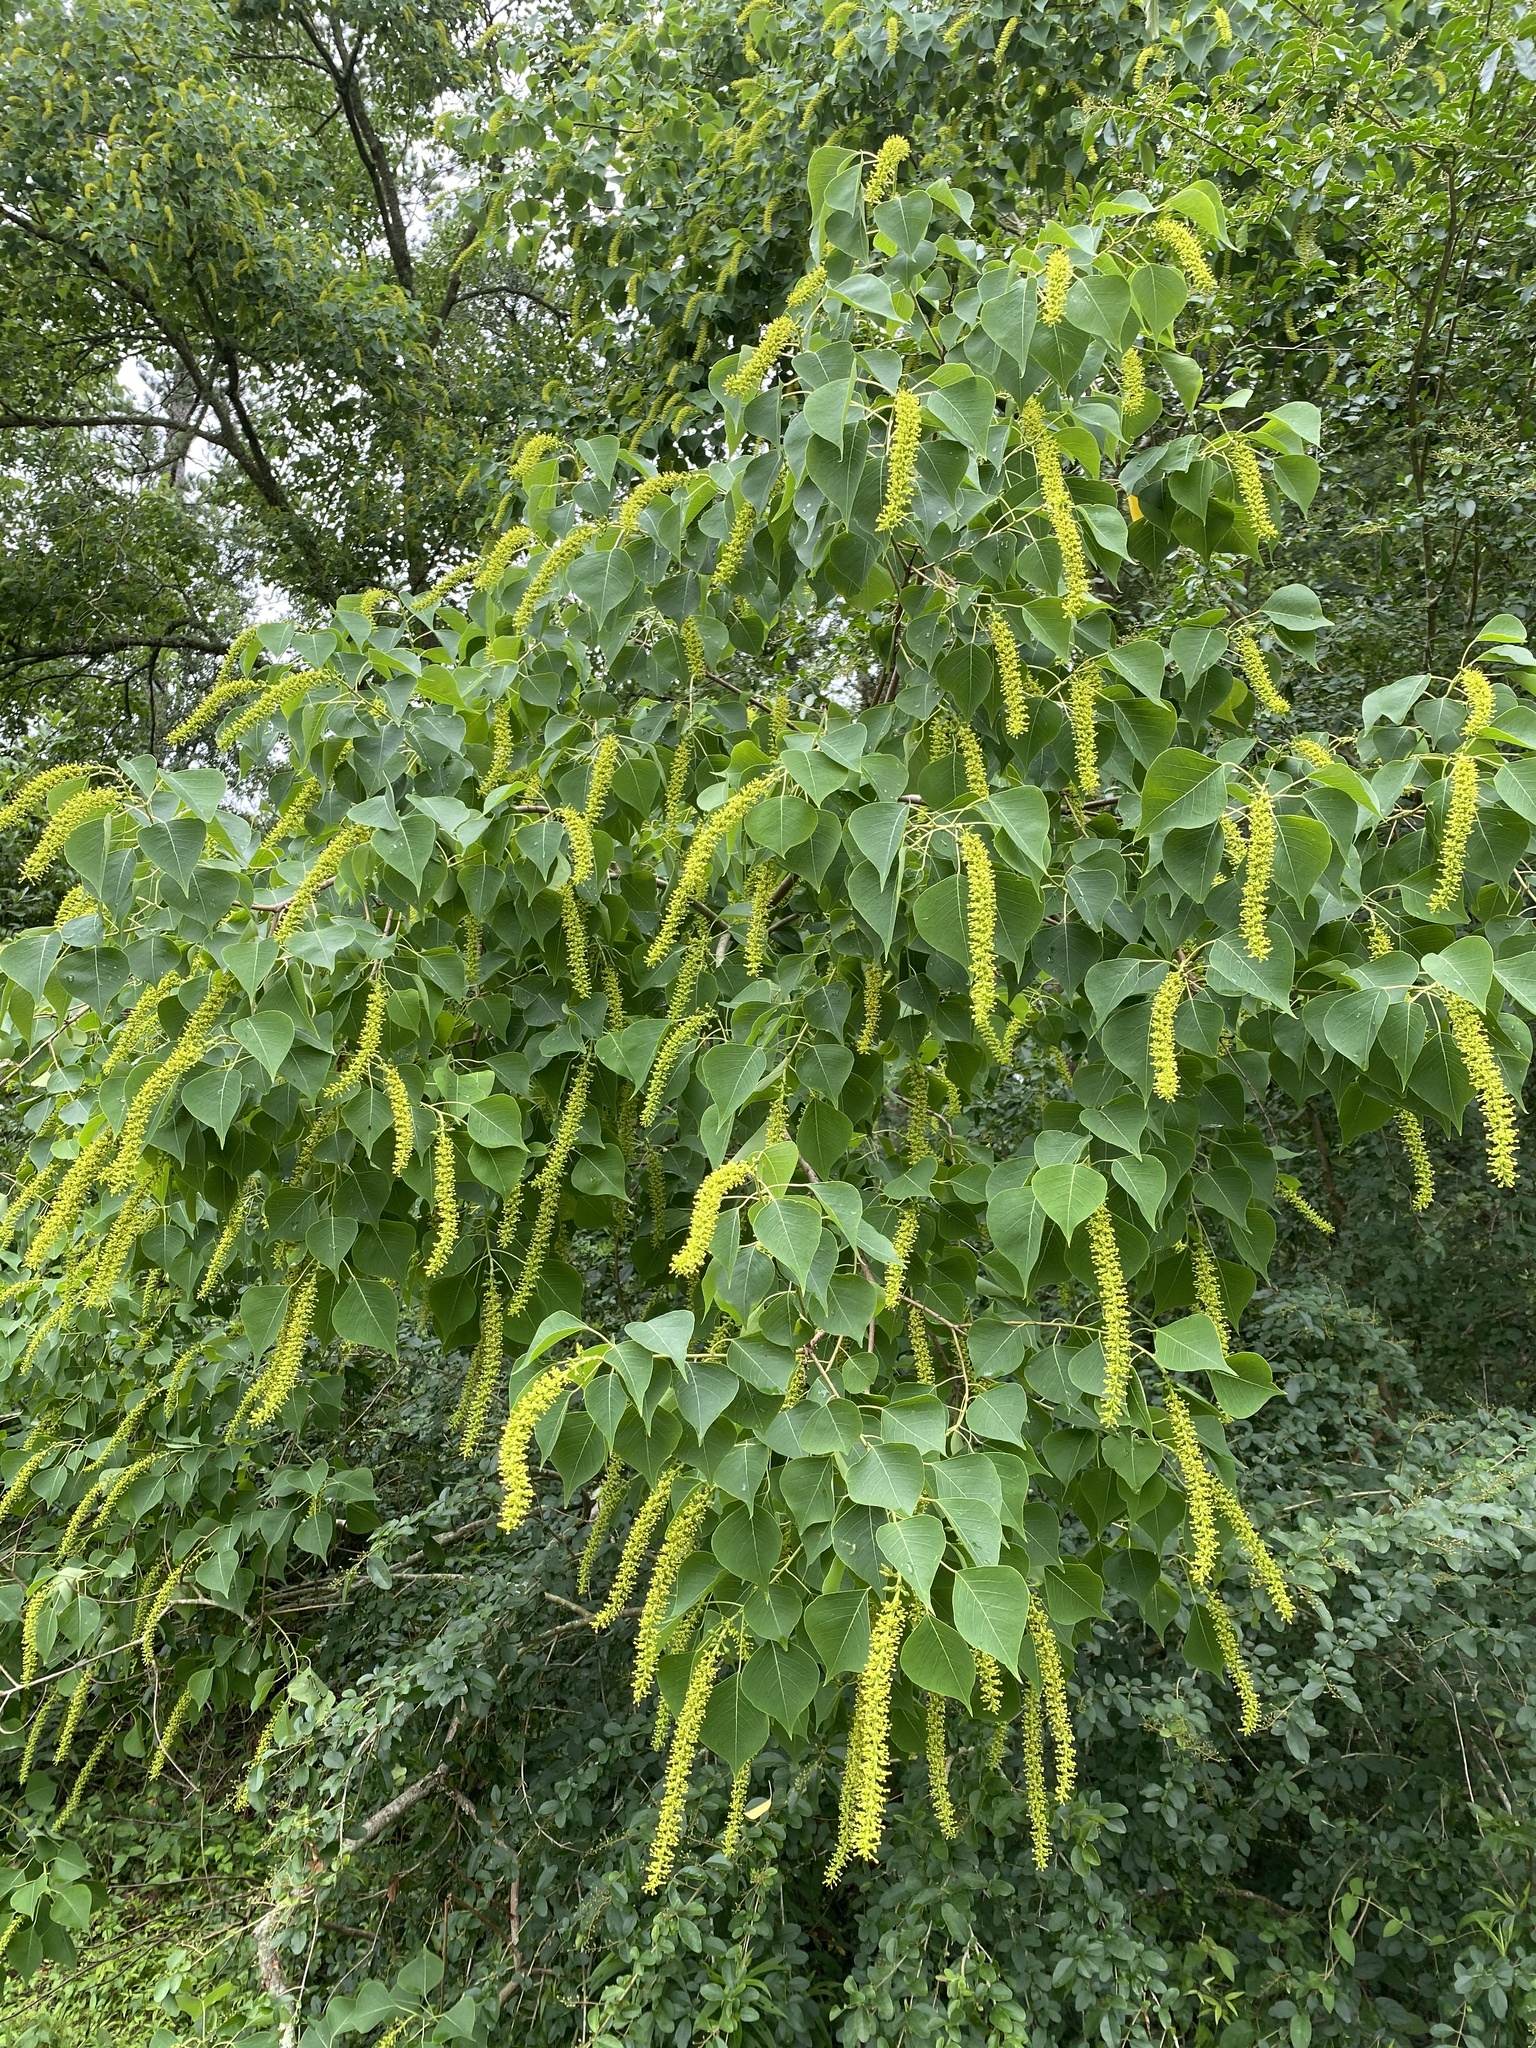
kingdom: Plantae
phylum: Tracheophyta
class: Magnoliopsida
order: Malpighiales
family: Euphorbiaceae
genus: Triadica
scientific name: Triadica sebifera
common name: Chinese tallow
